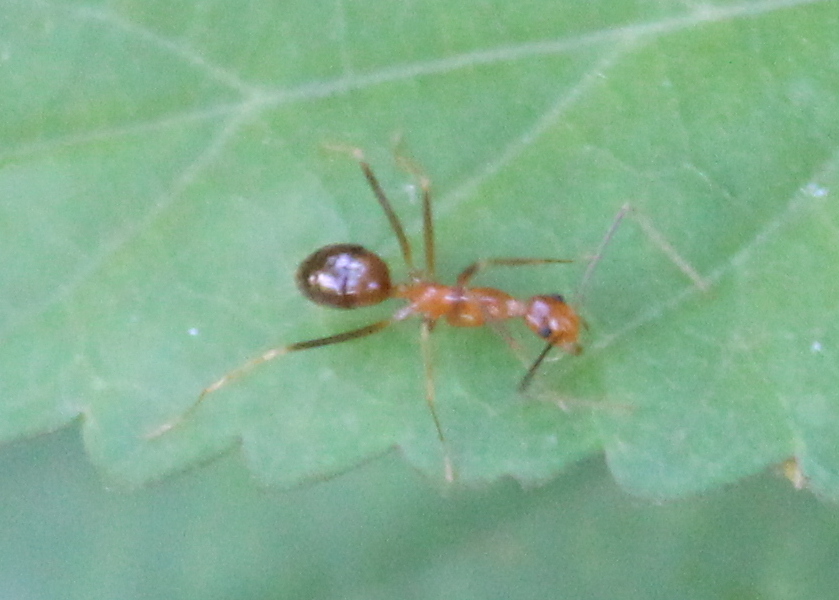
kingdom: Animalia
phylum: Arthropoda
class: Insecta
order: Hymenoptera
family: Formicidae
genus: Anoplolepis
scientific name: Anoplolepis gracilipes
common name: Ant
